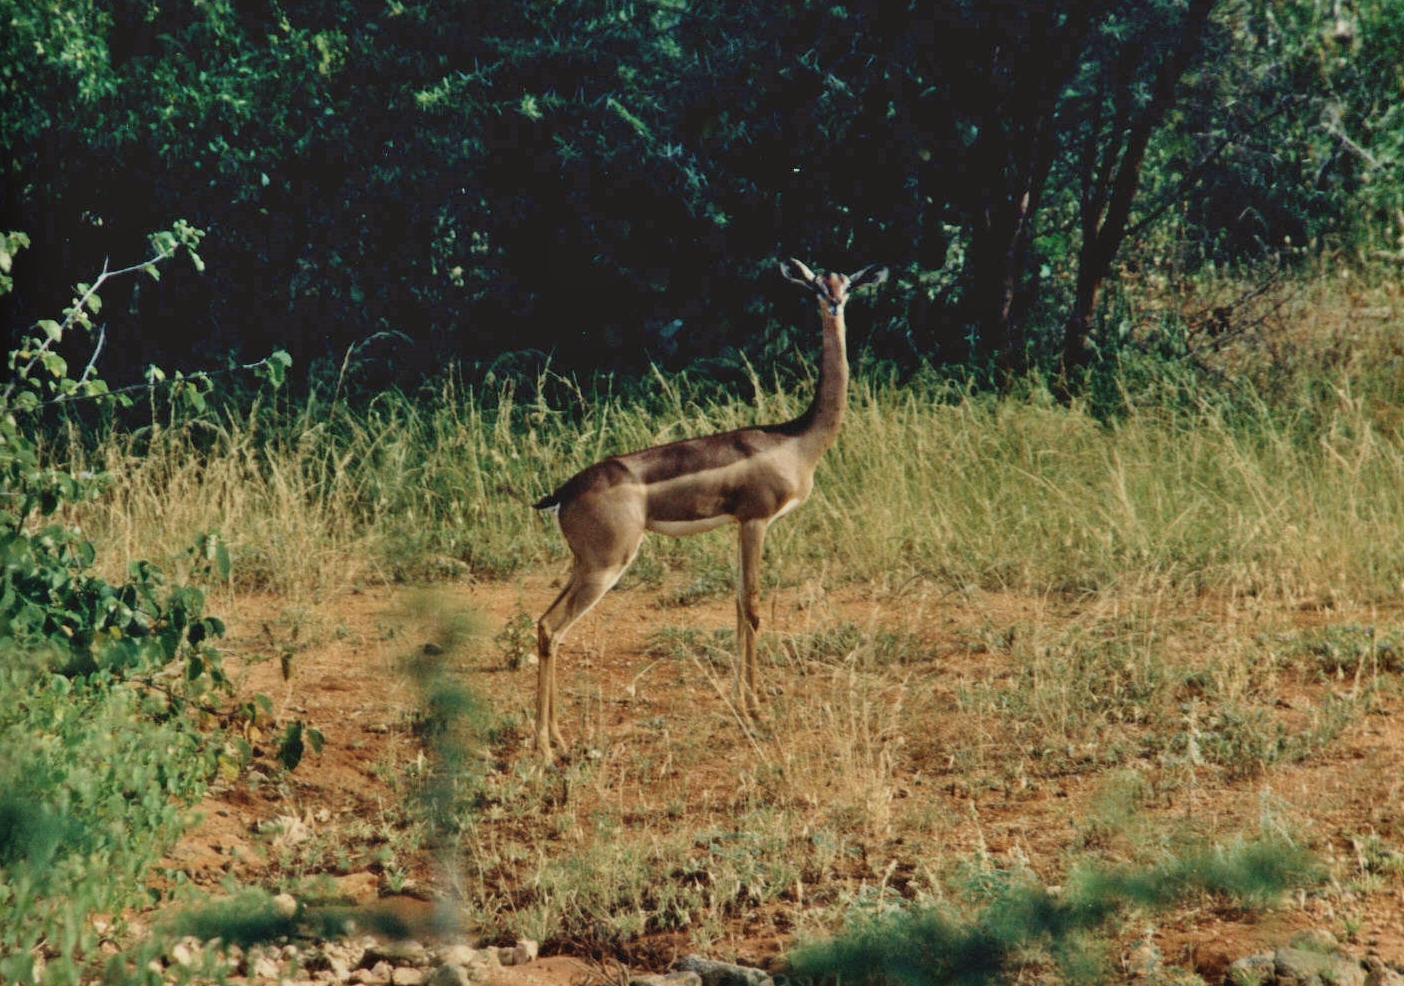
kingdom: Animalia
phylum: Chordata
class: Mammalia
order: Artiodactyla
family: Bovidae
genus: Litocranius
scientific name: Litocranius walleri
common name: Gerenuk
